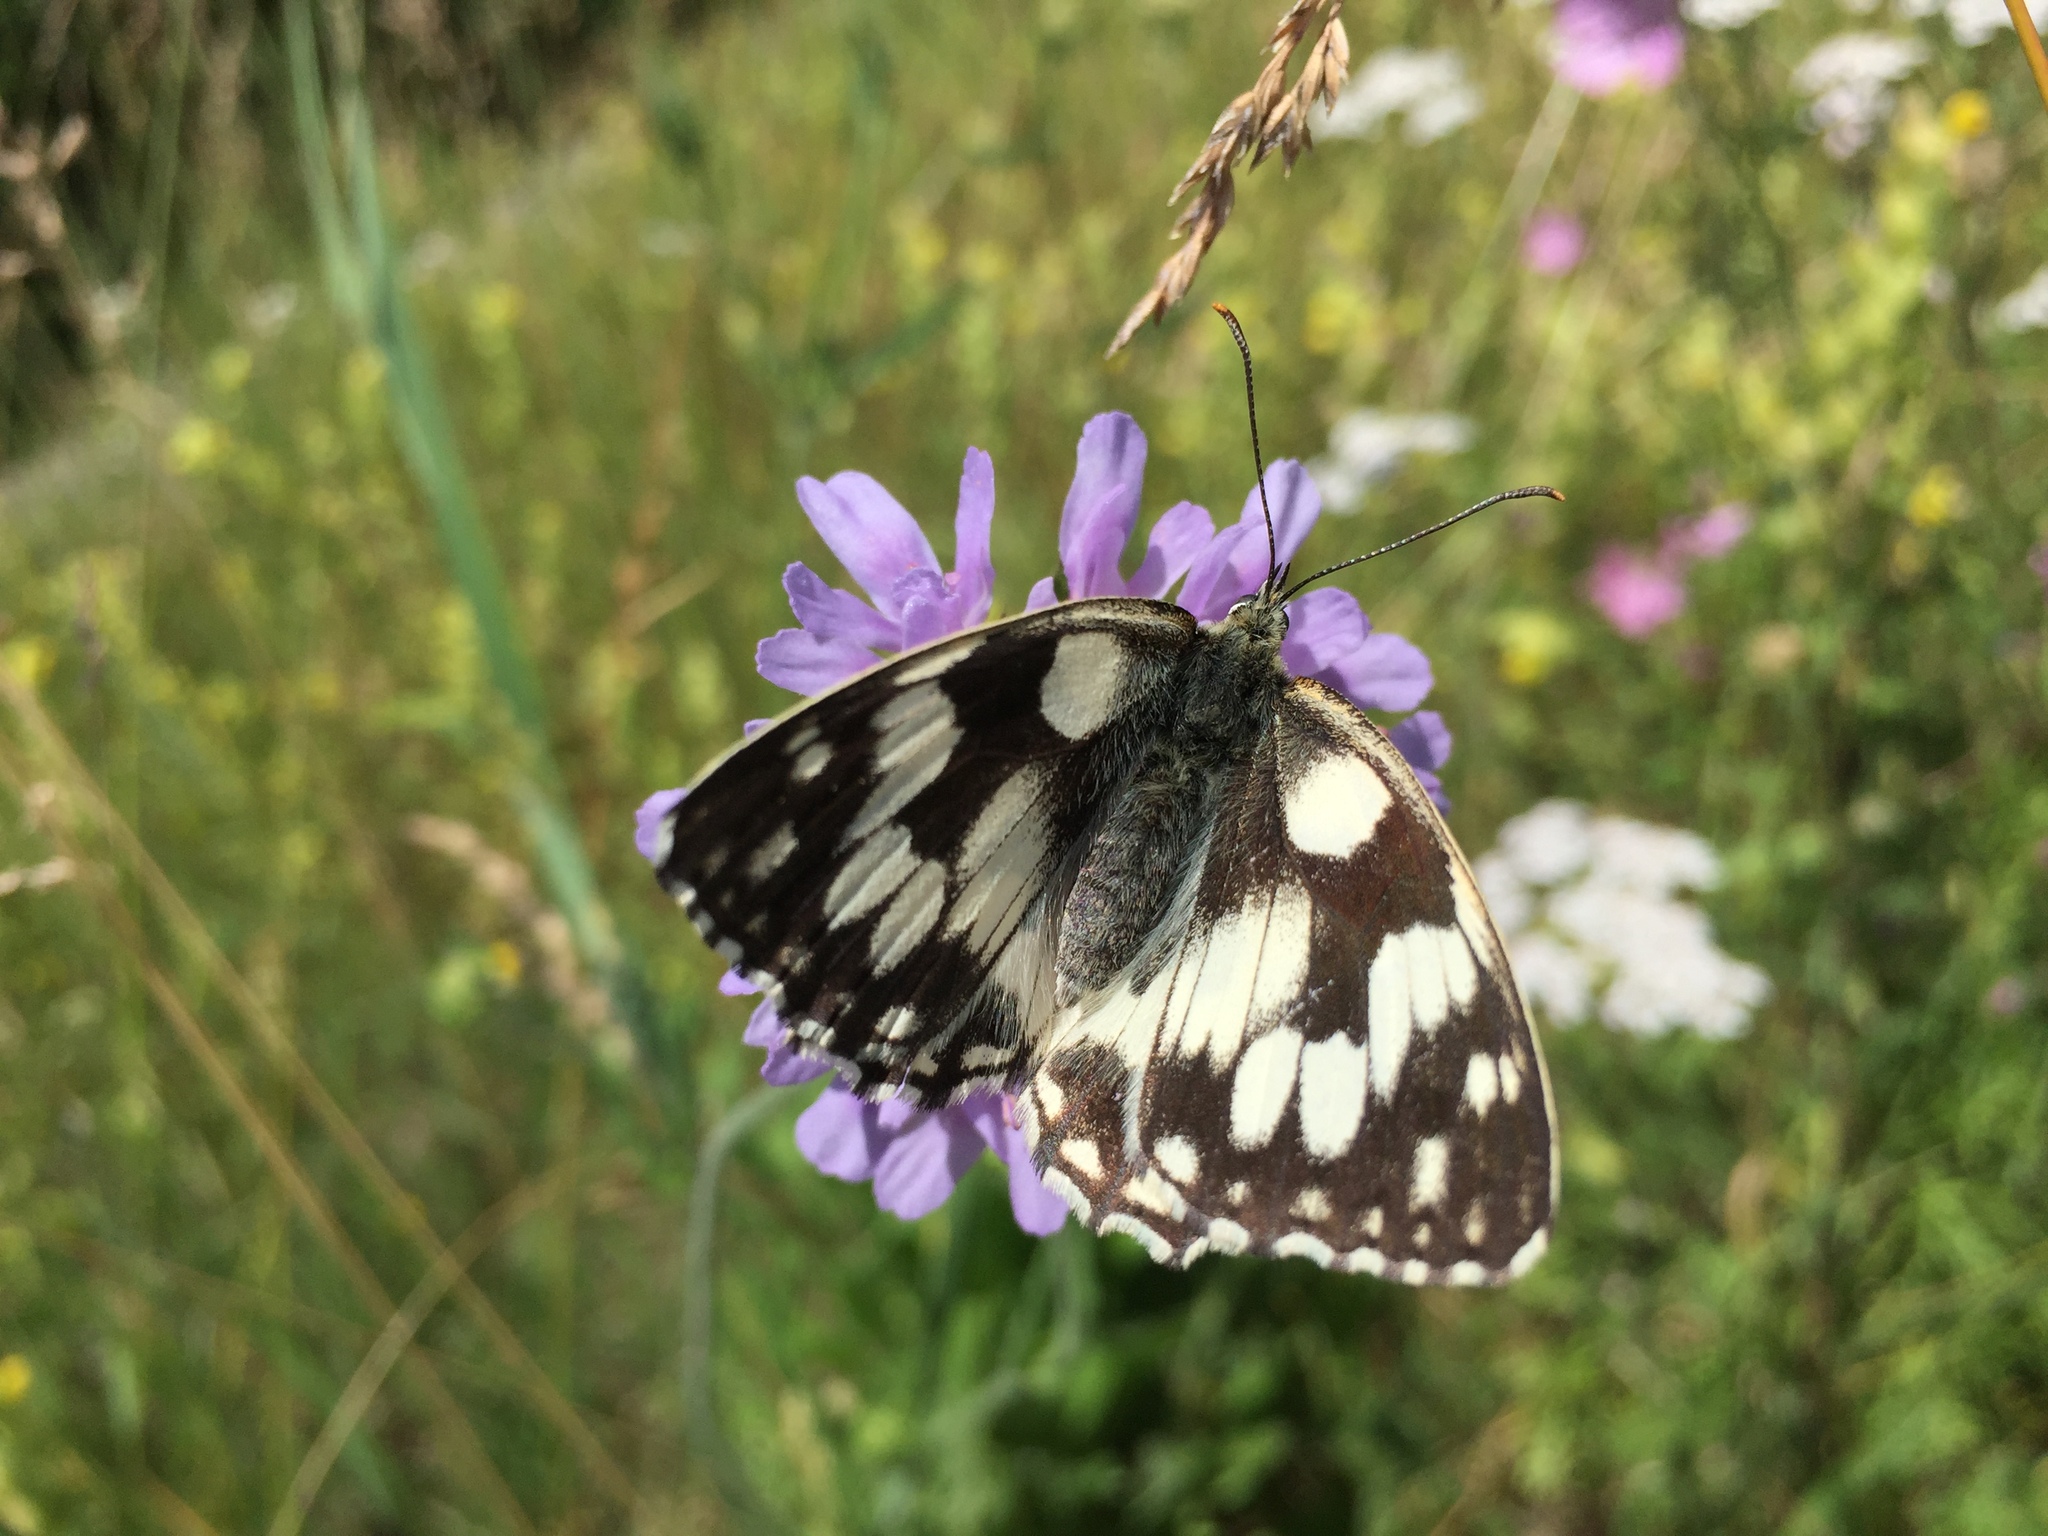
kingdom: Animalia
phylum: Arthropoda
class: Insecta
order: Lepidoptera
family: Nymphalidae
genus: Melanargia
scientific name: Melanargia galathea
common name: Marbled white
